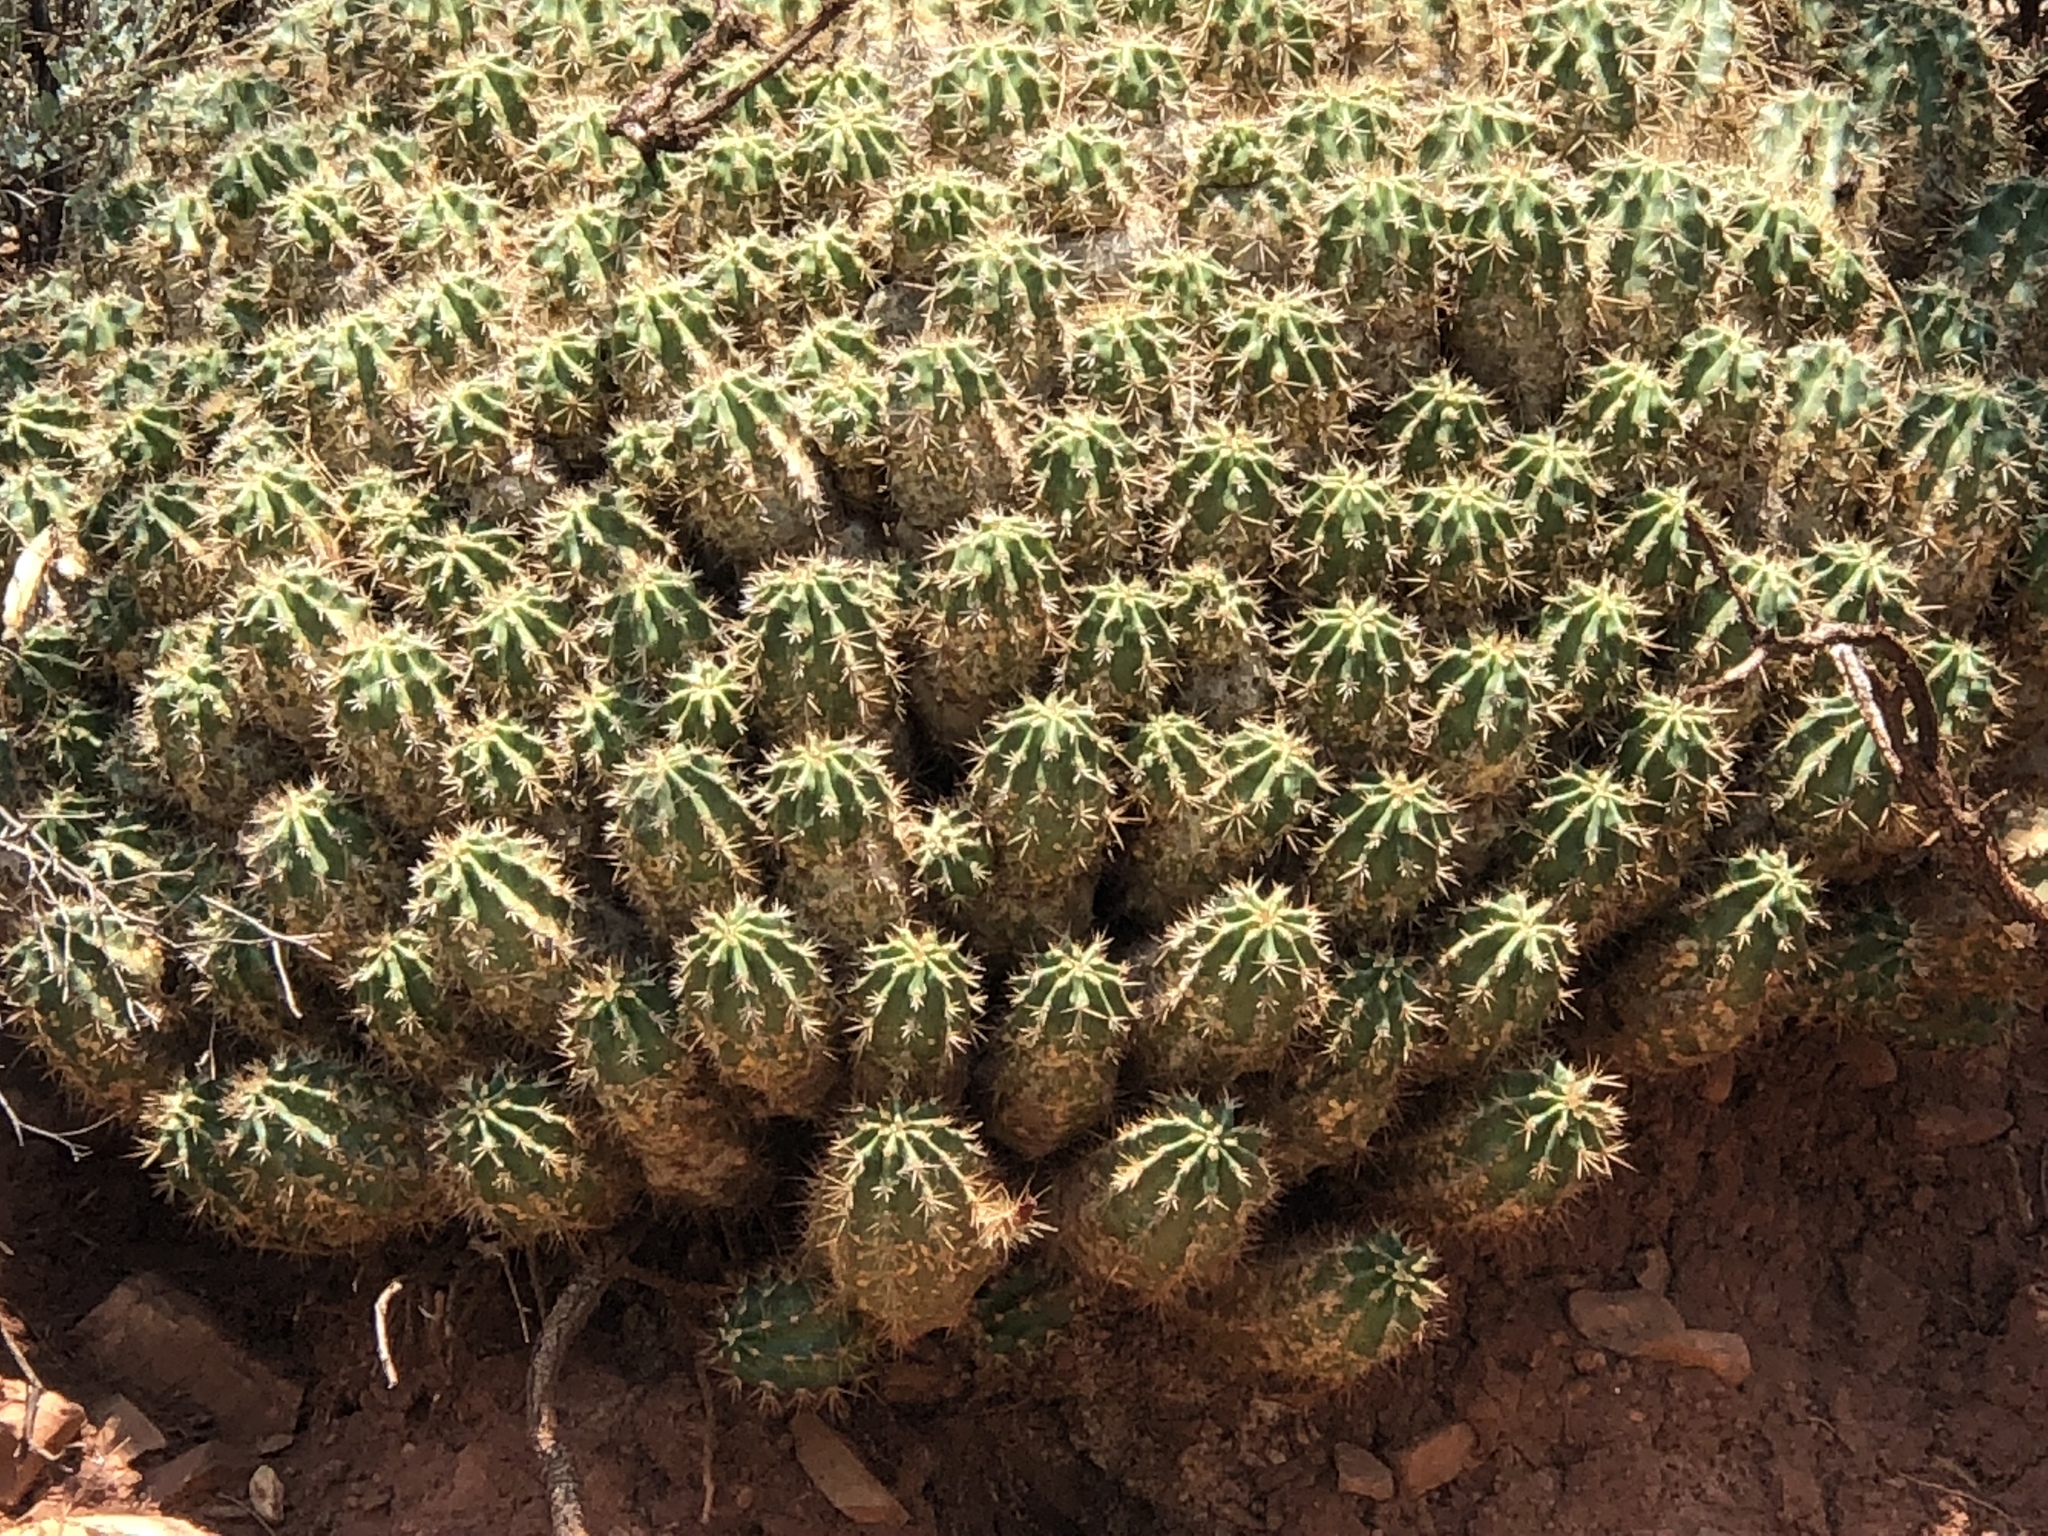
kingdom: Plantae
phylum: Tracheophyta
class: Magnoliopsida
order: Caryophyllales
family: Cactaceae
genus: Echinocereus
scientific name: Echinocereus coccineus
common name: Scarlet hedgehog cactus
